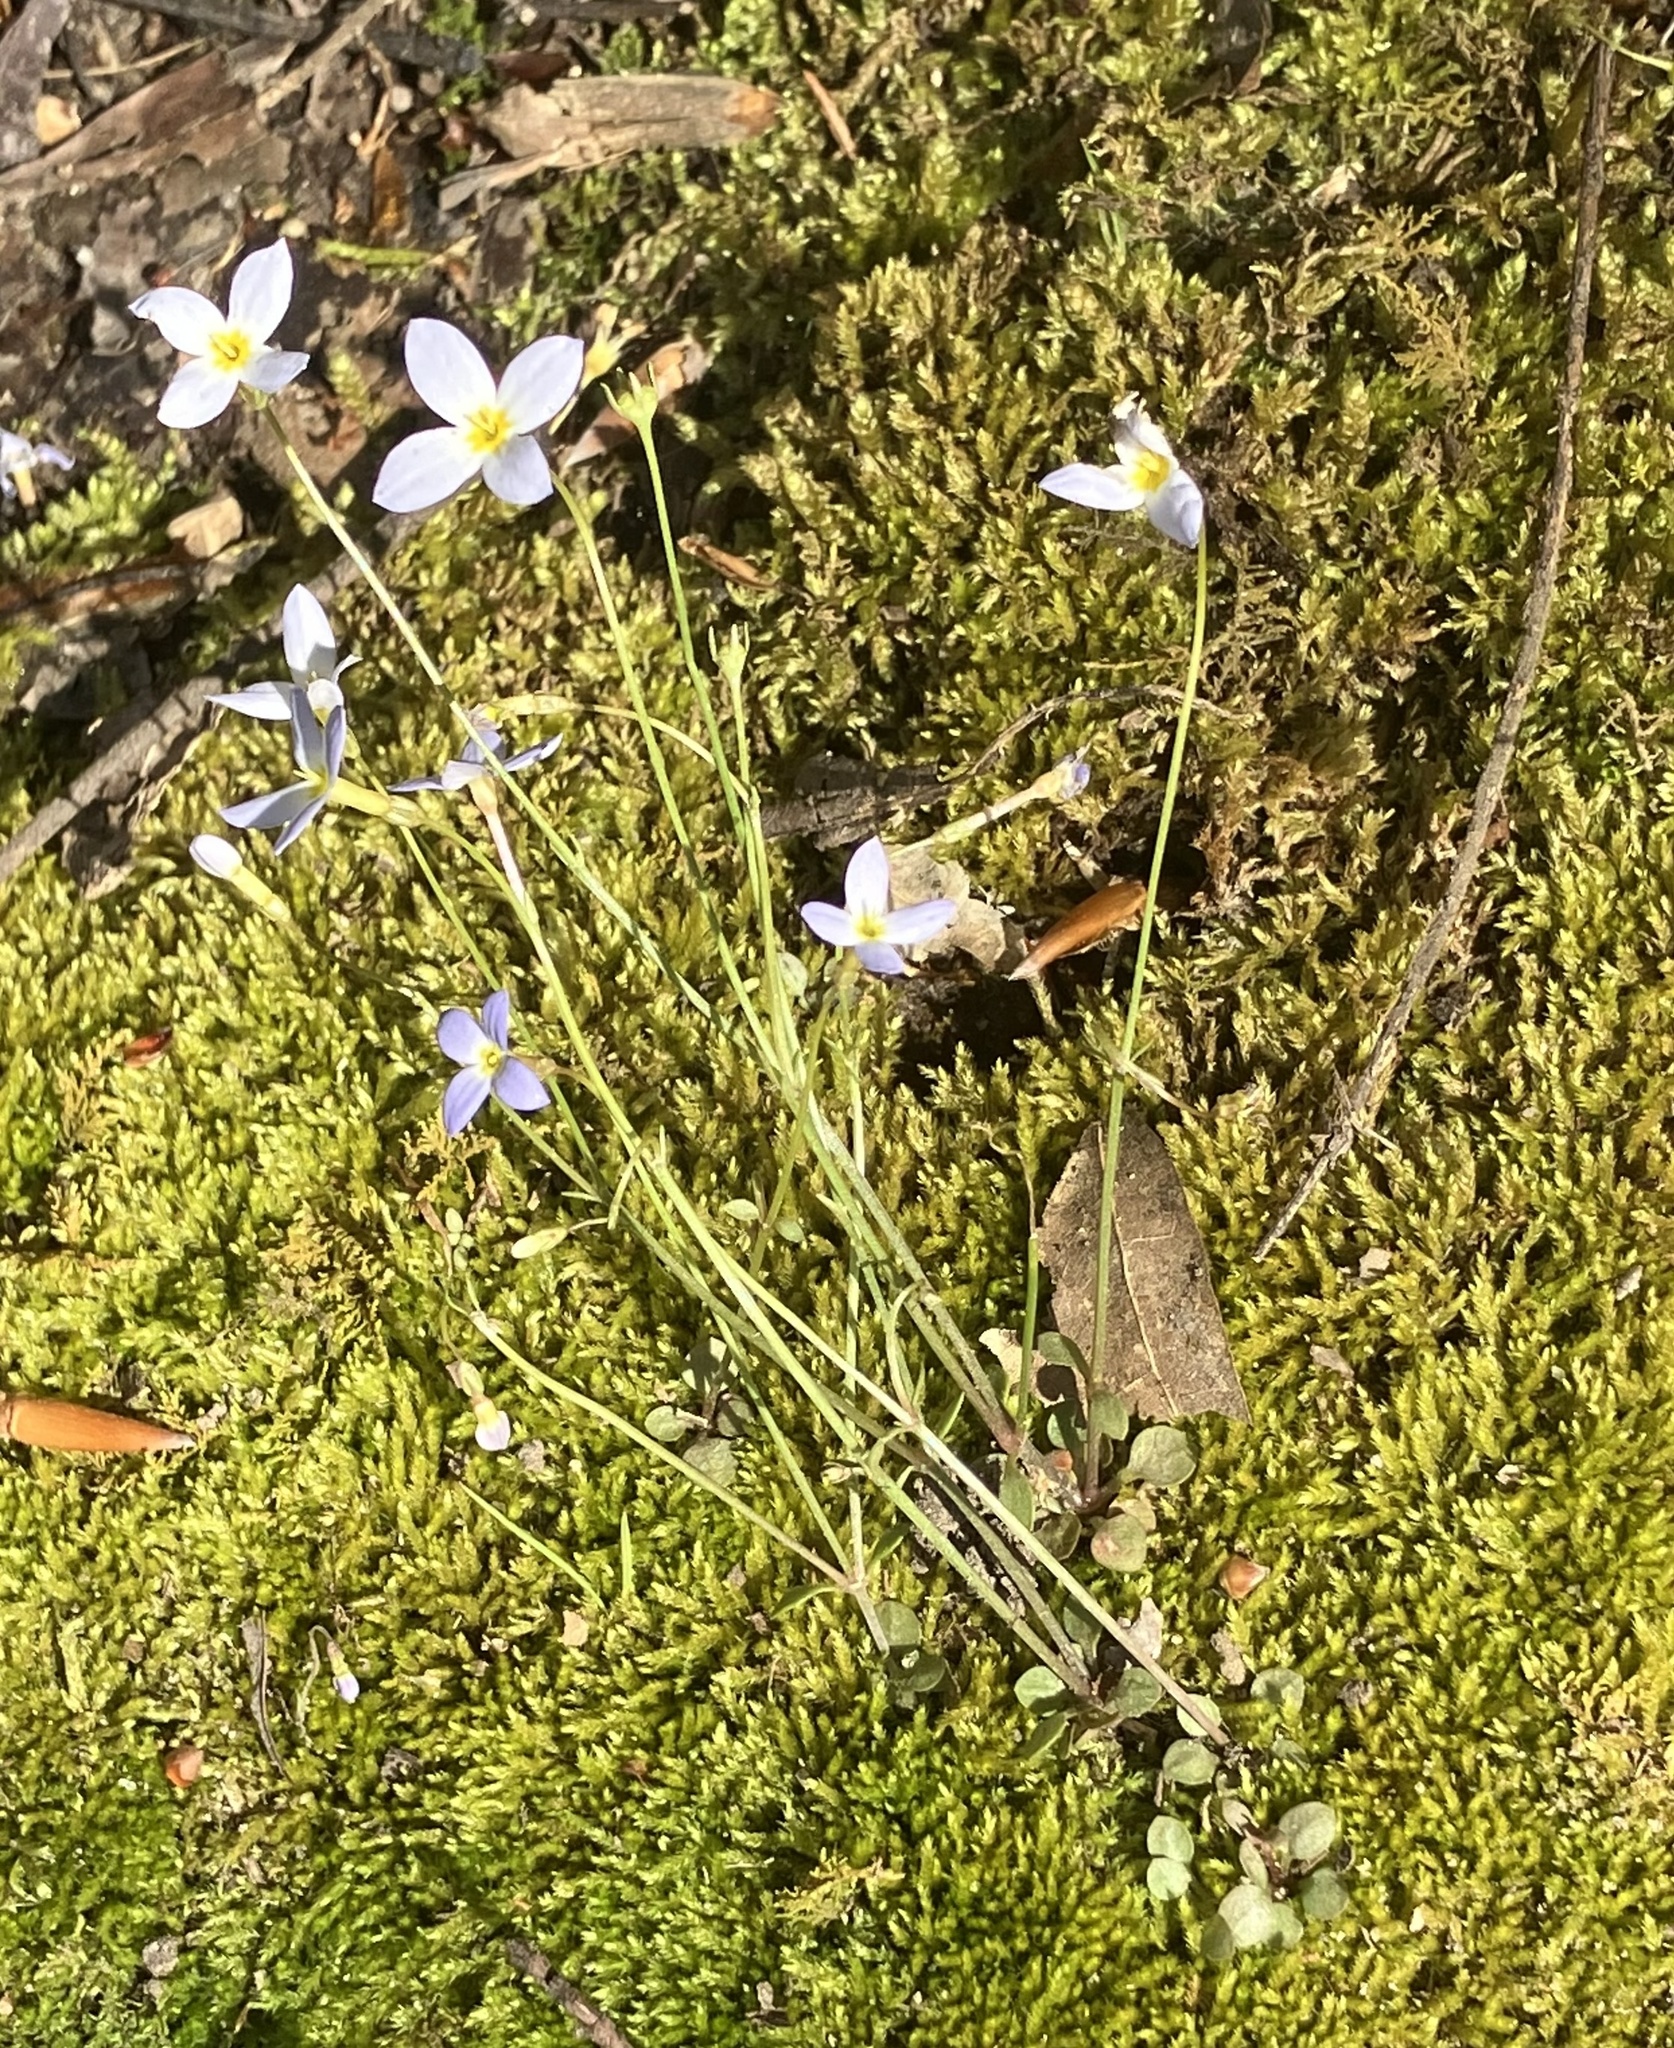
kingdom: Plantae
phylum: Tracheophyta
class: Magnoliopsida
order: Gentianales
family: Rubiaceae
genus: Houstonia
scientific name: Houstonia caerulea
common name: Bluets
